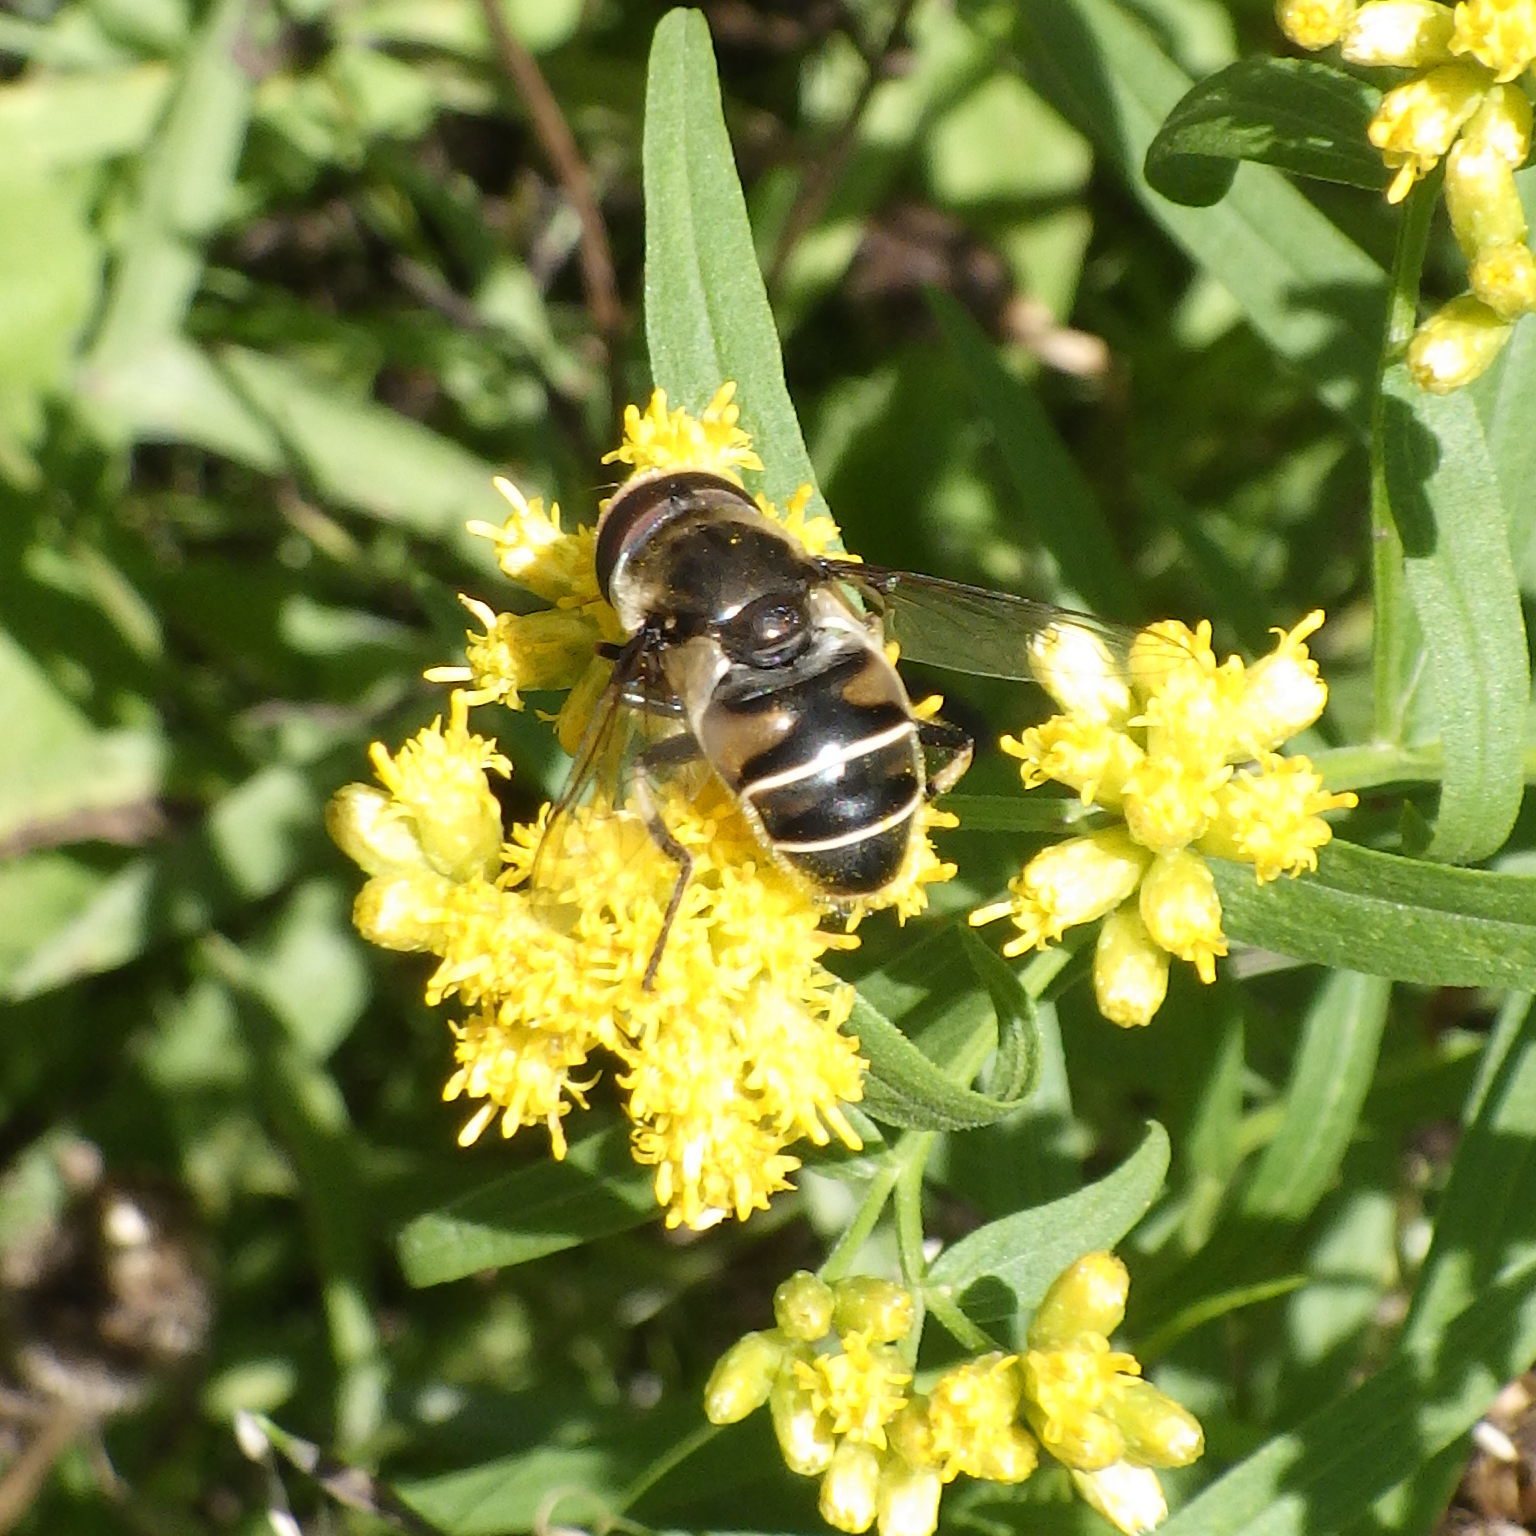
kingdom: Animalia
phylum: Arthropoda
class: Insecta
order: Diptera
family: Syrphidae
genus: Eristalis
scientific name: Eristalis dimidiata
